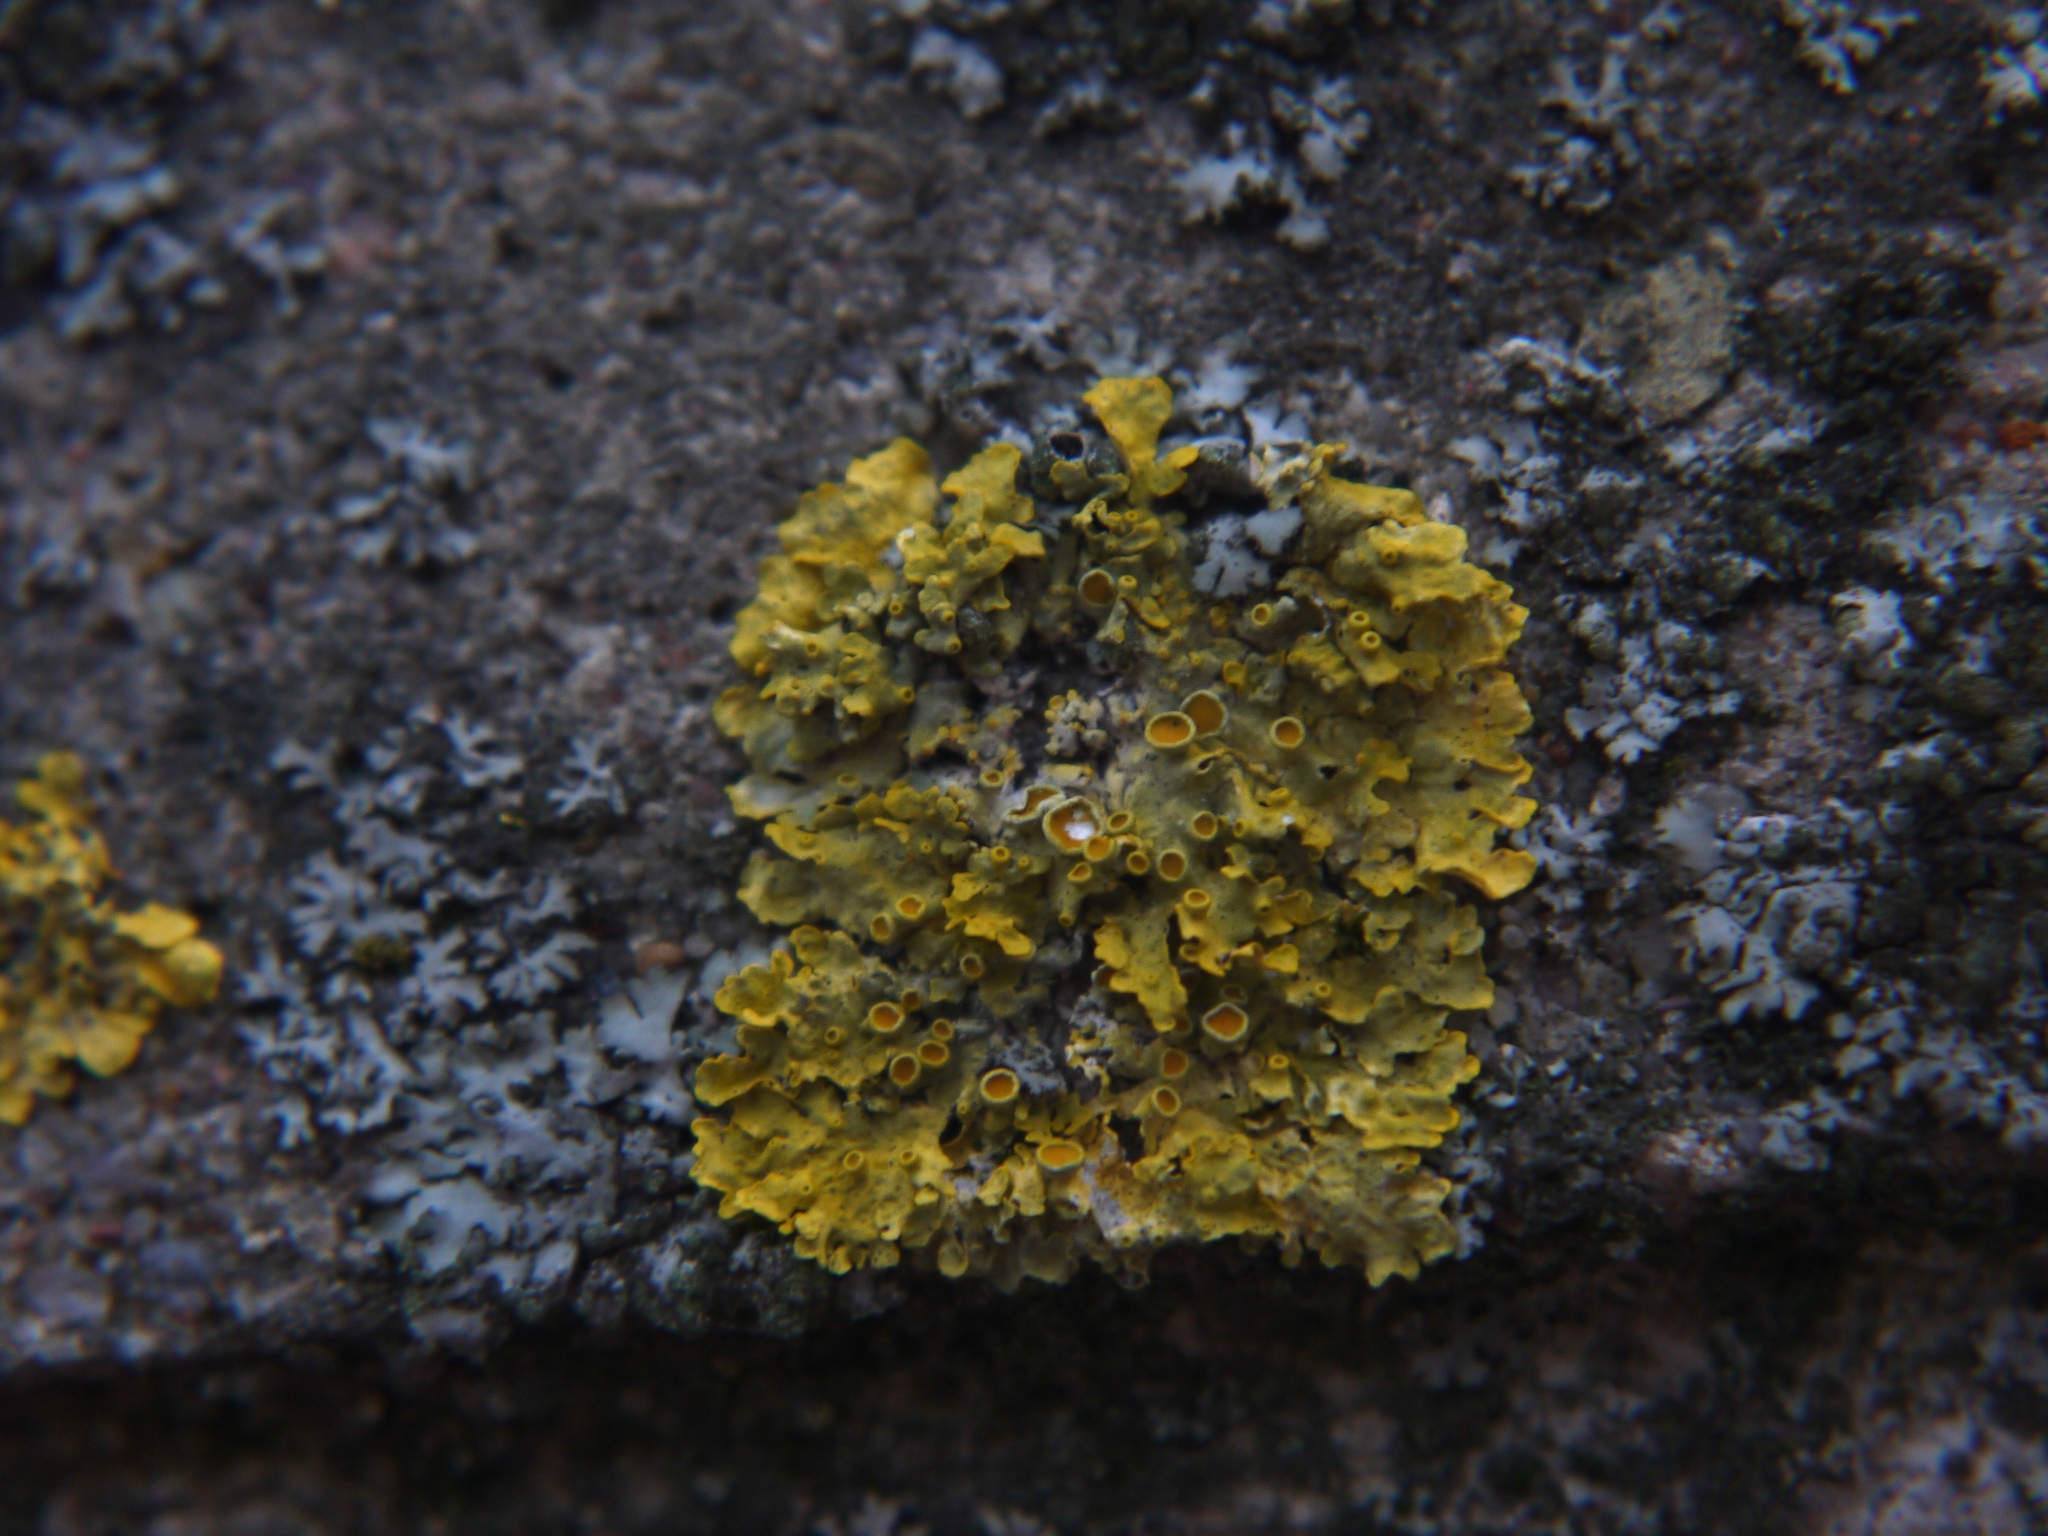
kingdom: Fungi
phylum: Ascomycota
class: Lecanoromycetes
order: Teloschistales
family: Teloschistaceae
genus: Xanthoria
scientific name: Xanthoria parietina
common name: Common orange lichen
